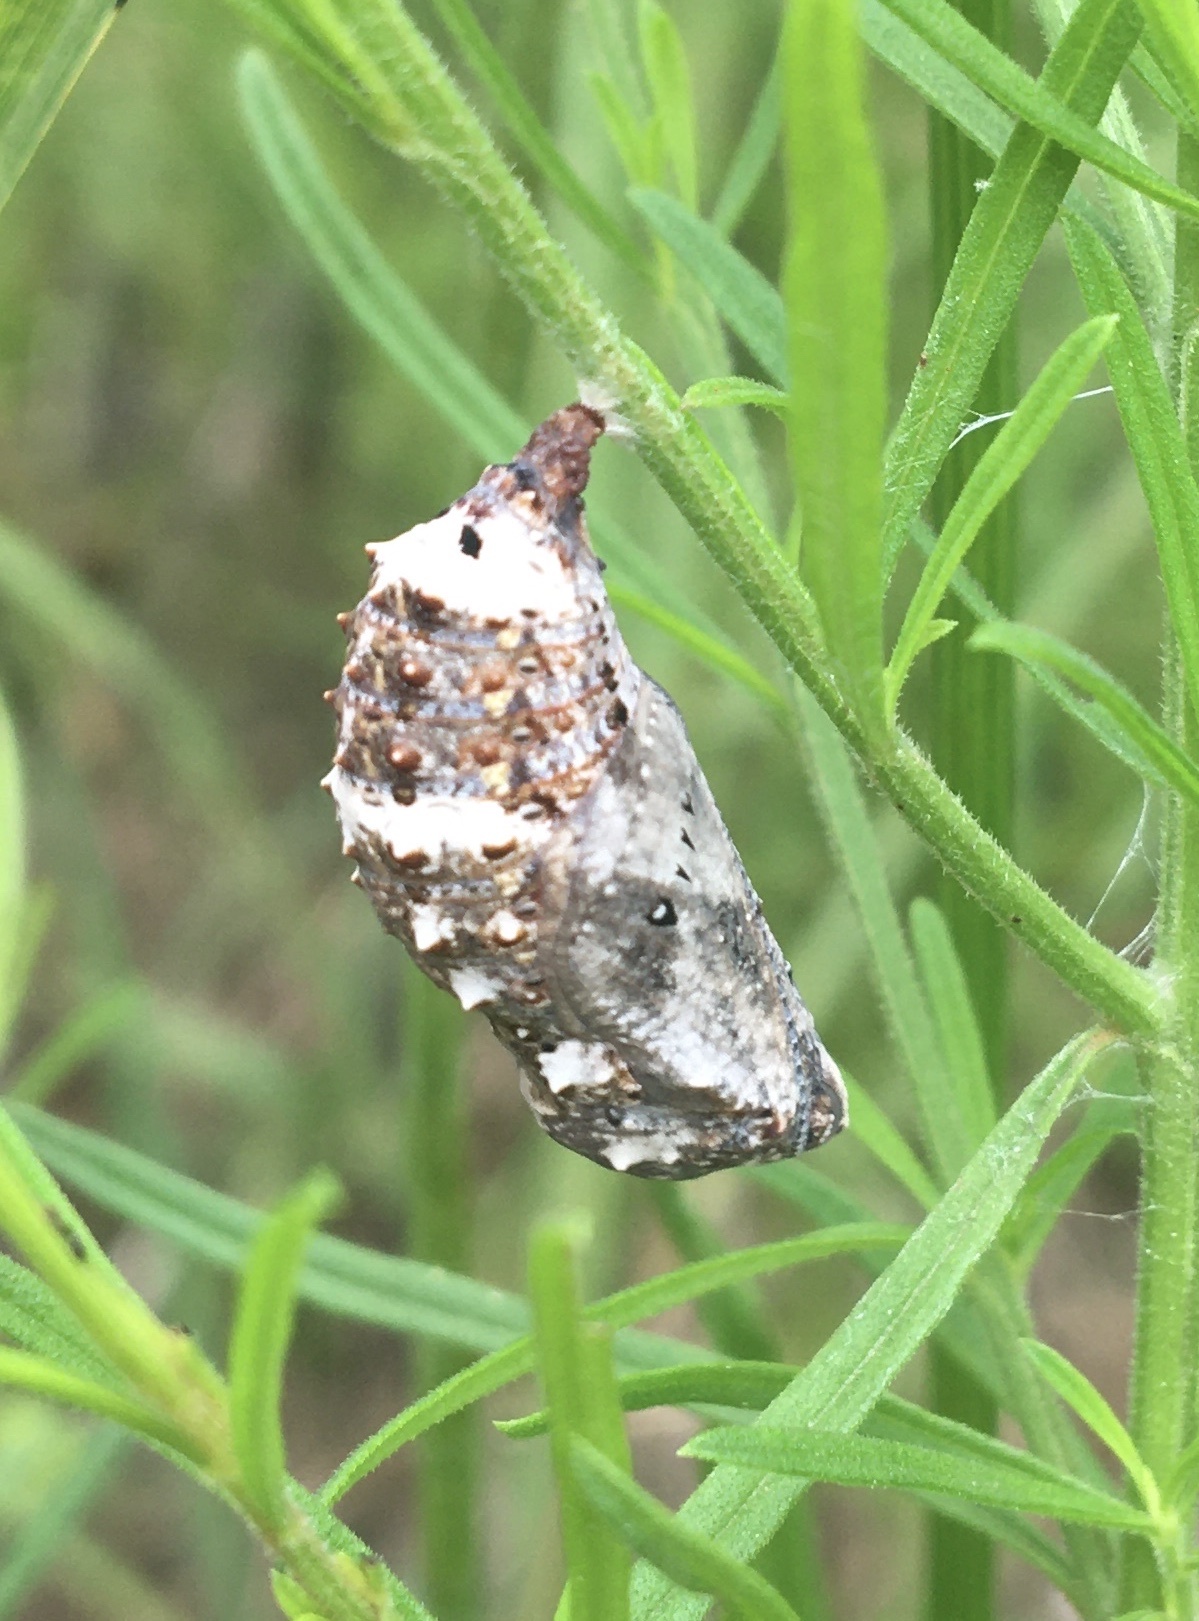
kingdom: Animalia
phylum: Arthropoda
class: Insecta
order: Lepidoptera
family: Nymphalidae
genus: Junonia
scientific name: Junonia coenia
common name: Common buckeye
